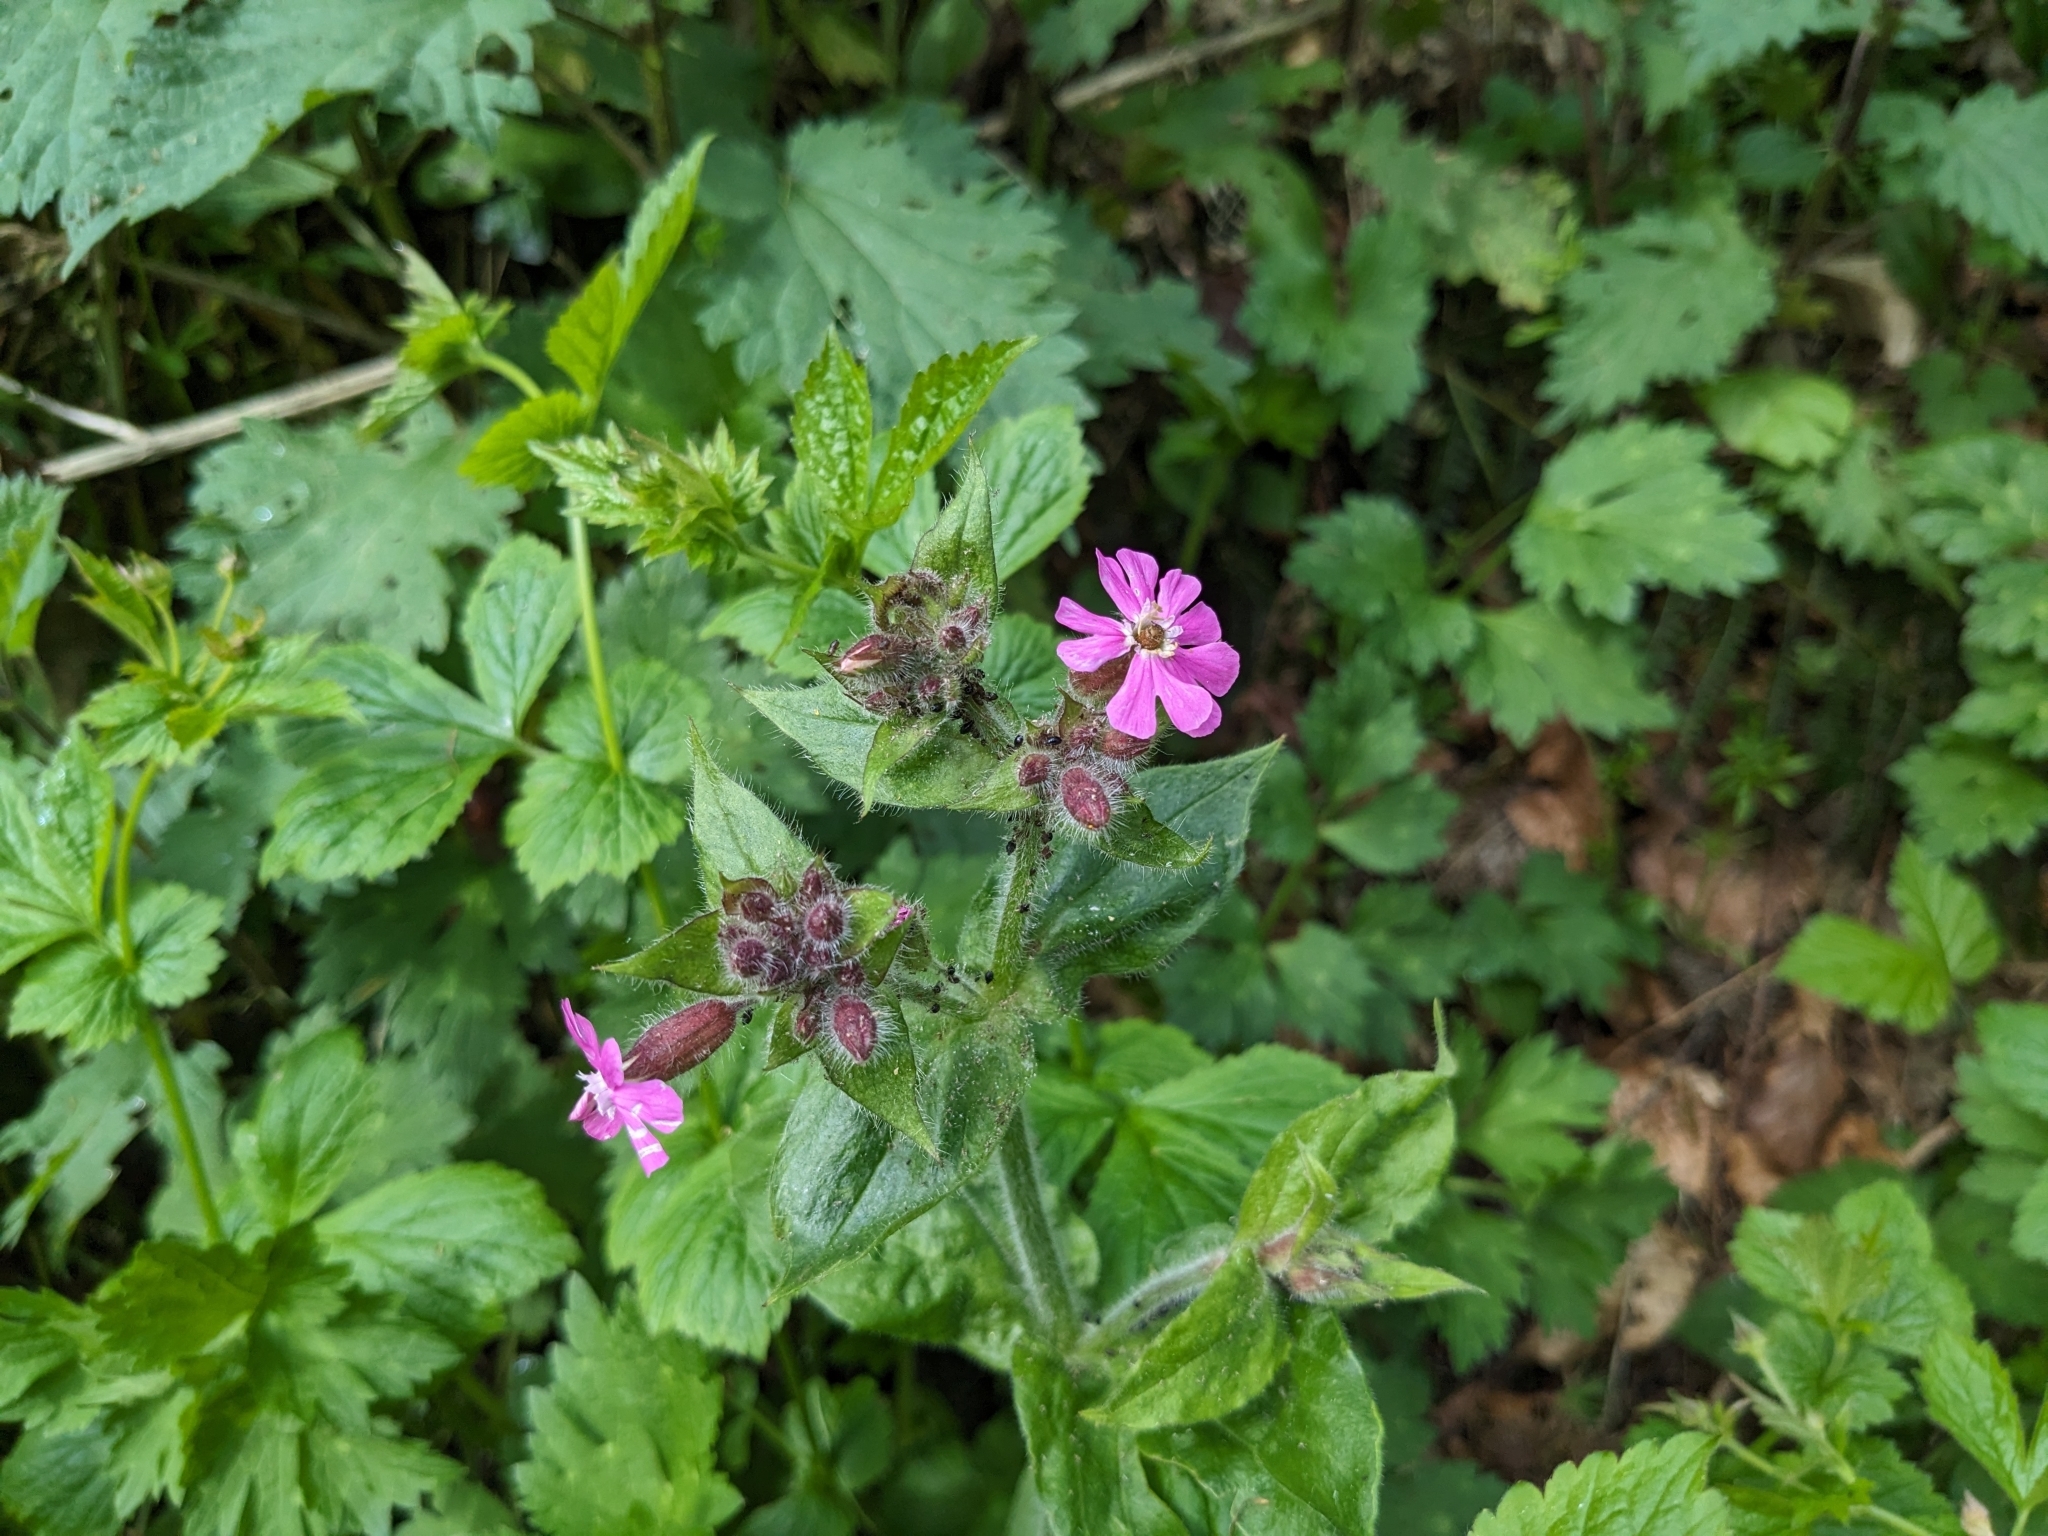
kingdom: Plantae
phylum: Tracheophyta
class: Magnoliopsida
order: Caryophyllales
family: Caryophyllaceae
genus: Silene
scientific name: Silene dioica
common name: Red campion
